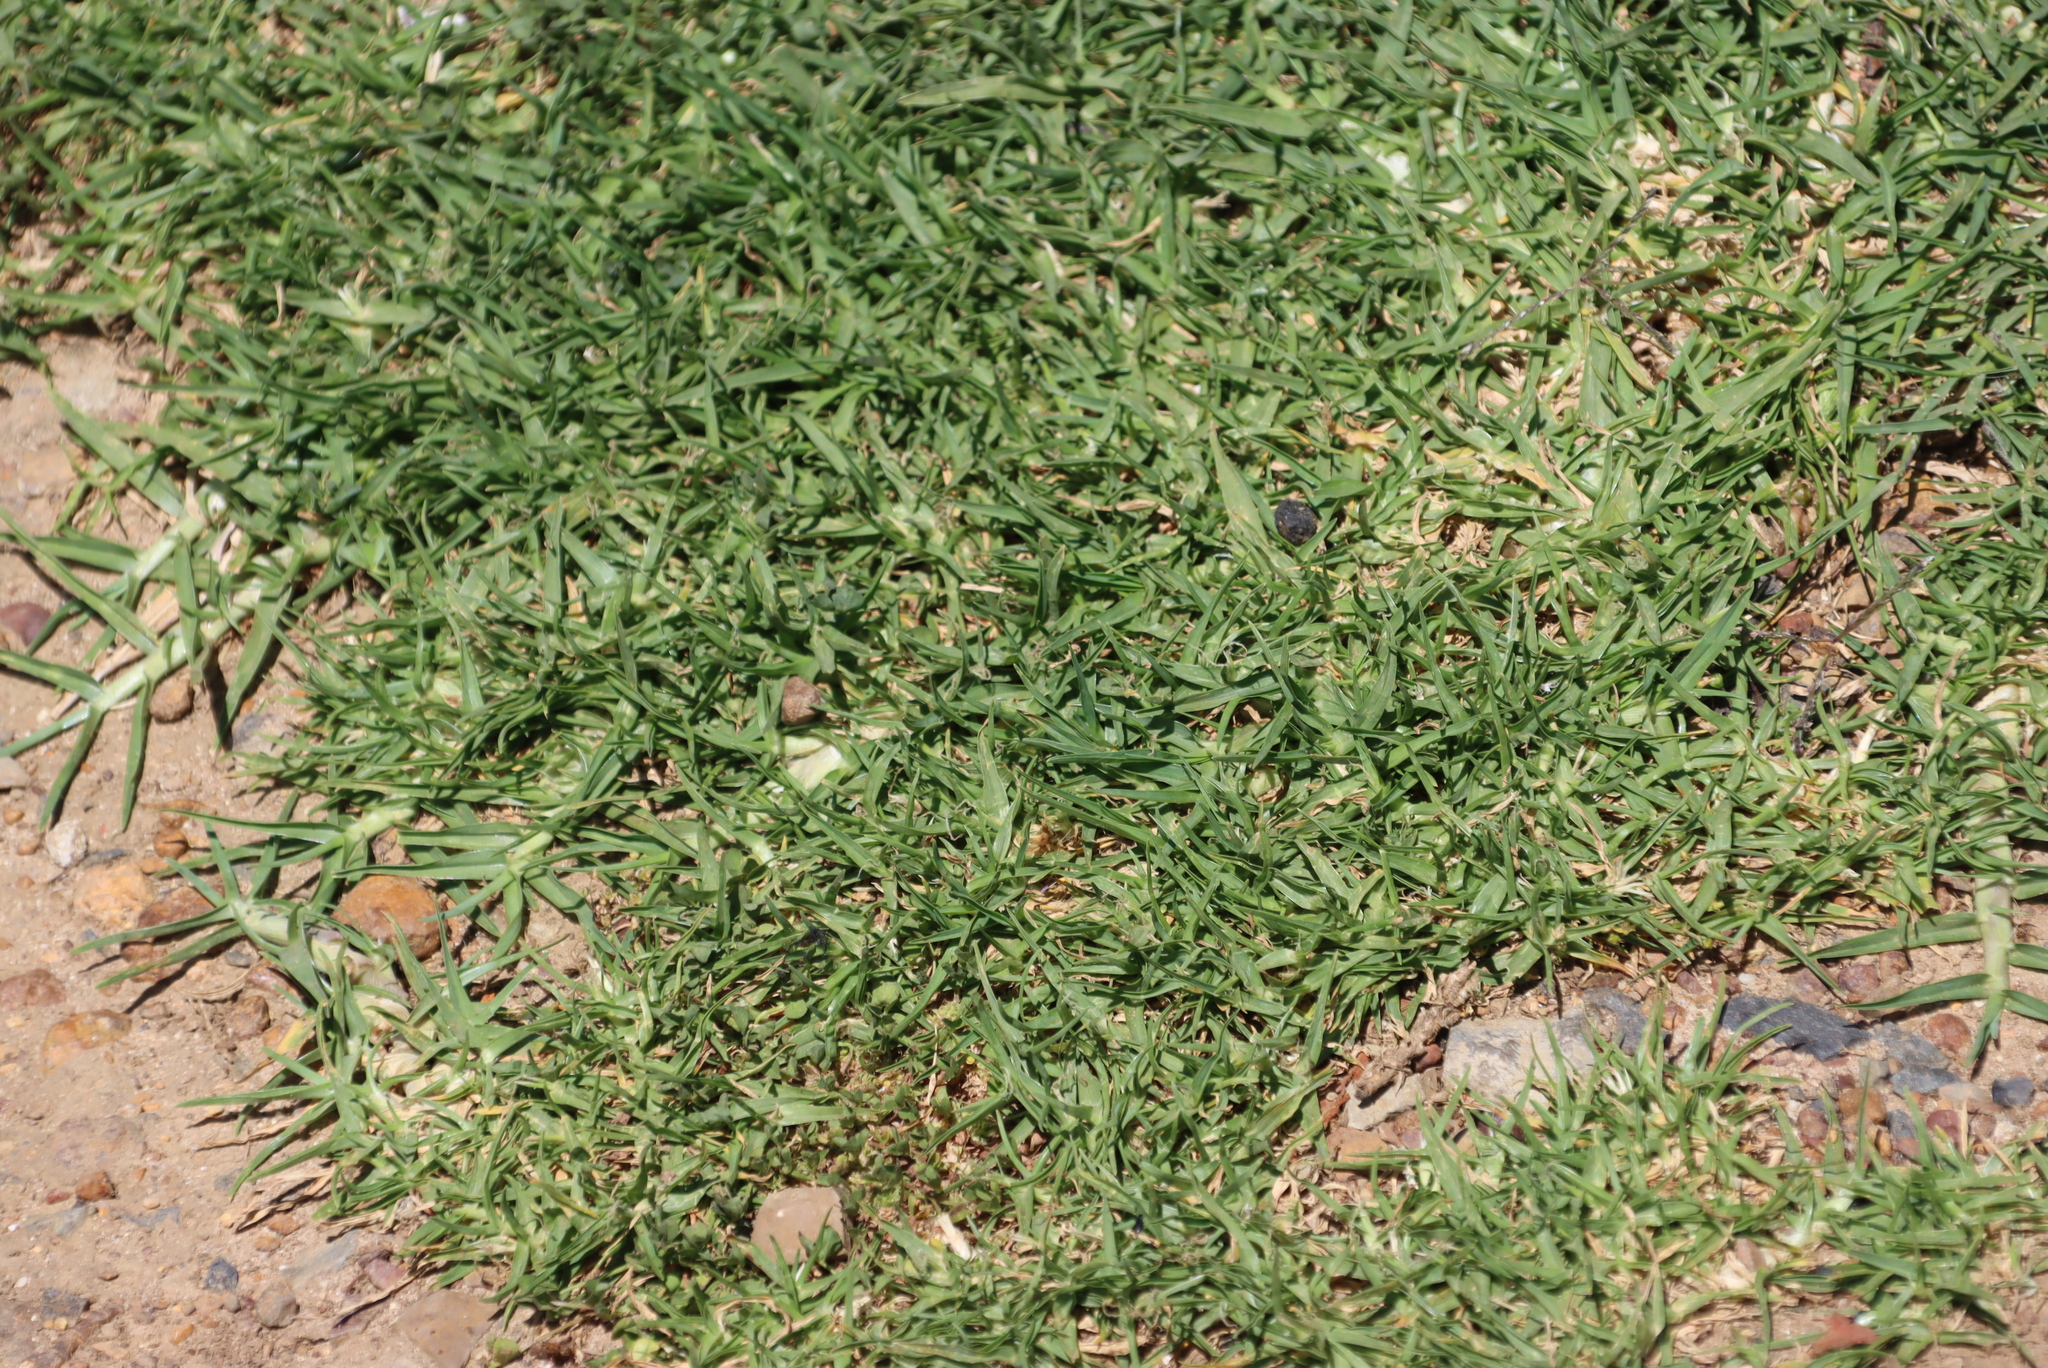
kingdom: Plantae
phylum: Tracheophyta
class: Liliopsida
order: Poales
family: Poaceae
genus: Cenchrus
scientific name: Cenchrus clandestinus
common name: Kikuyugrass
